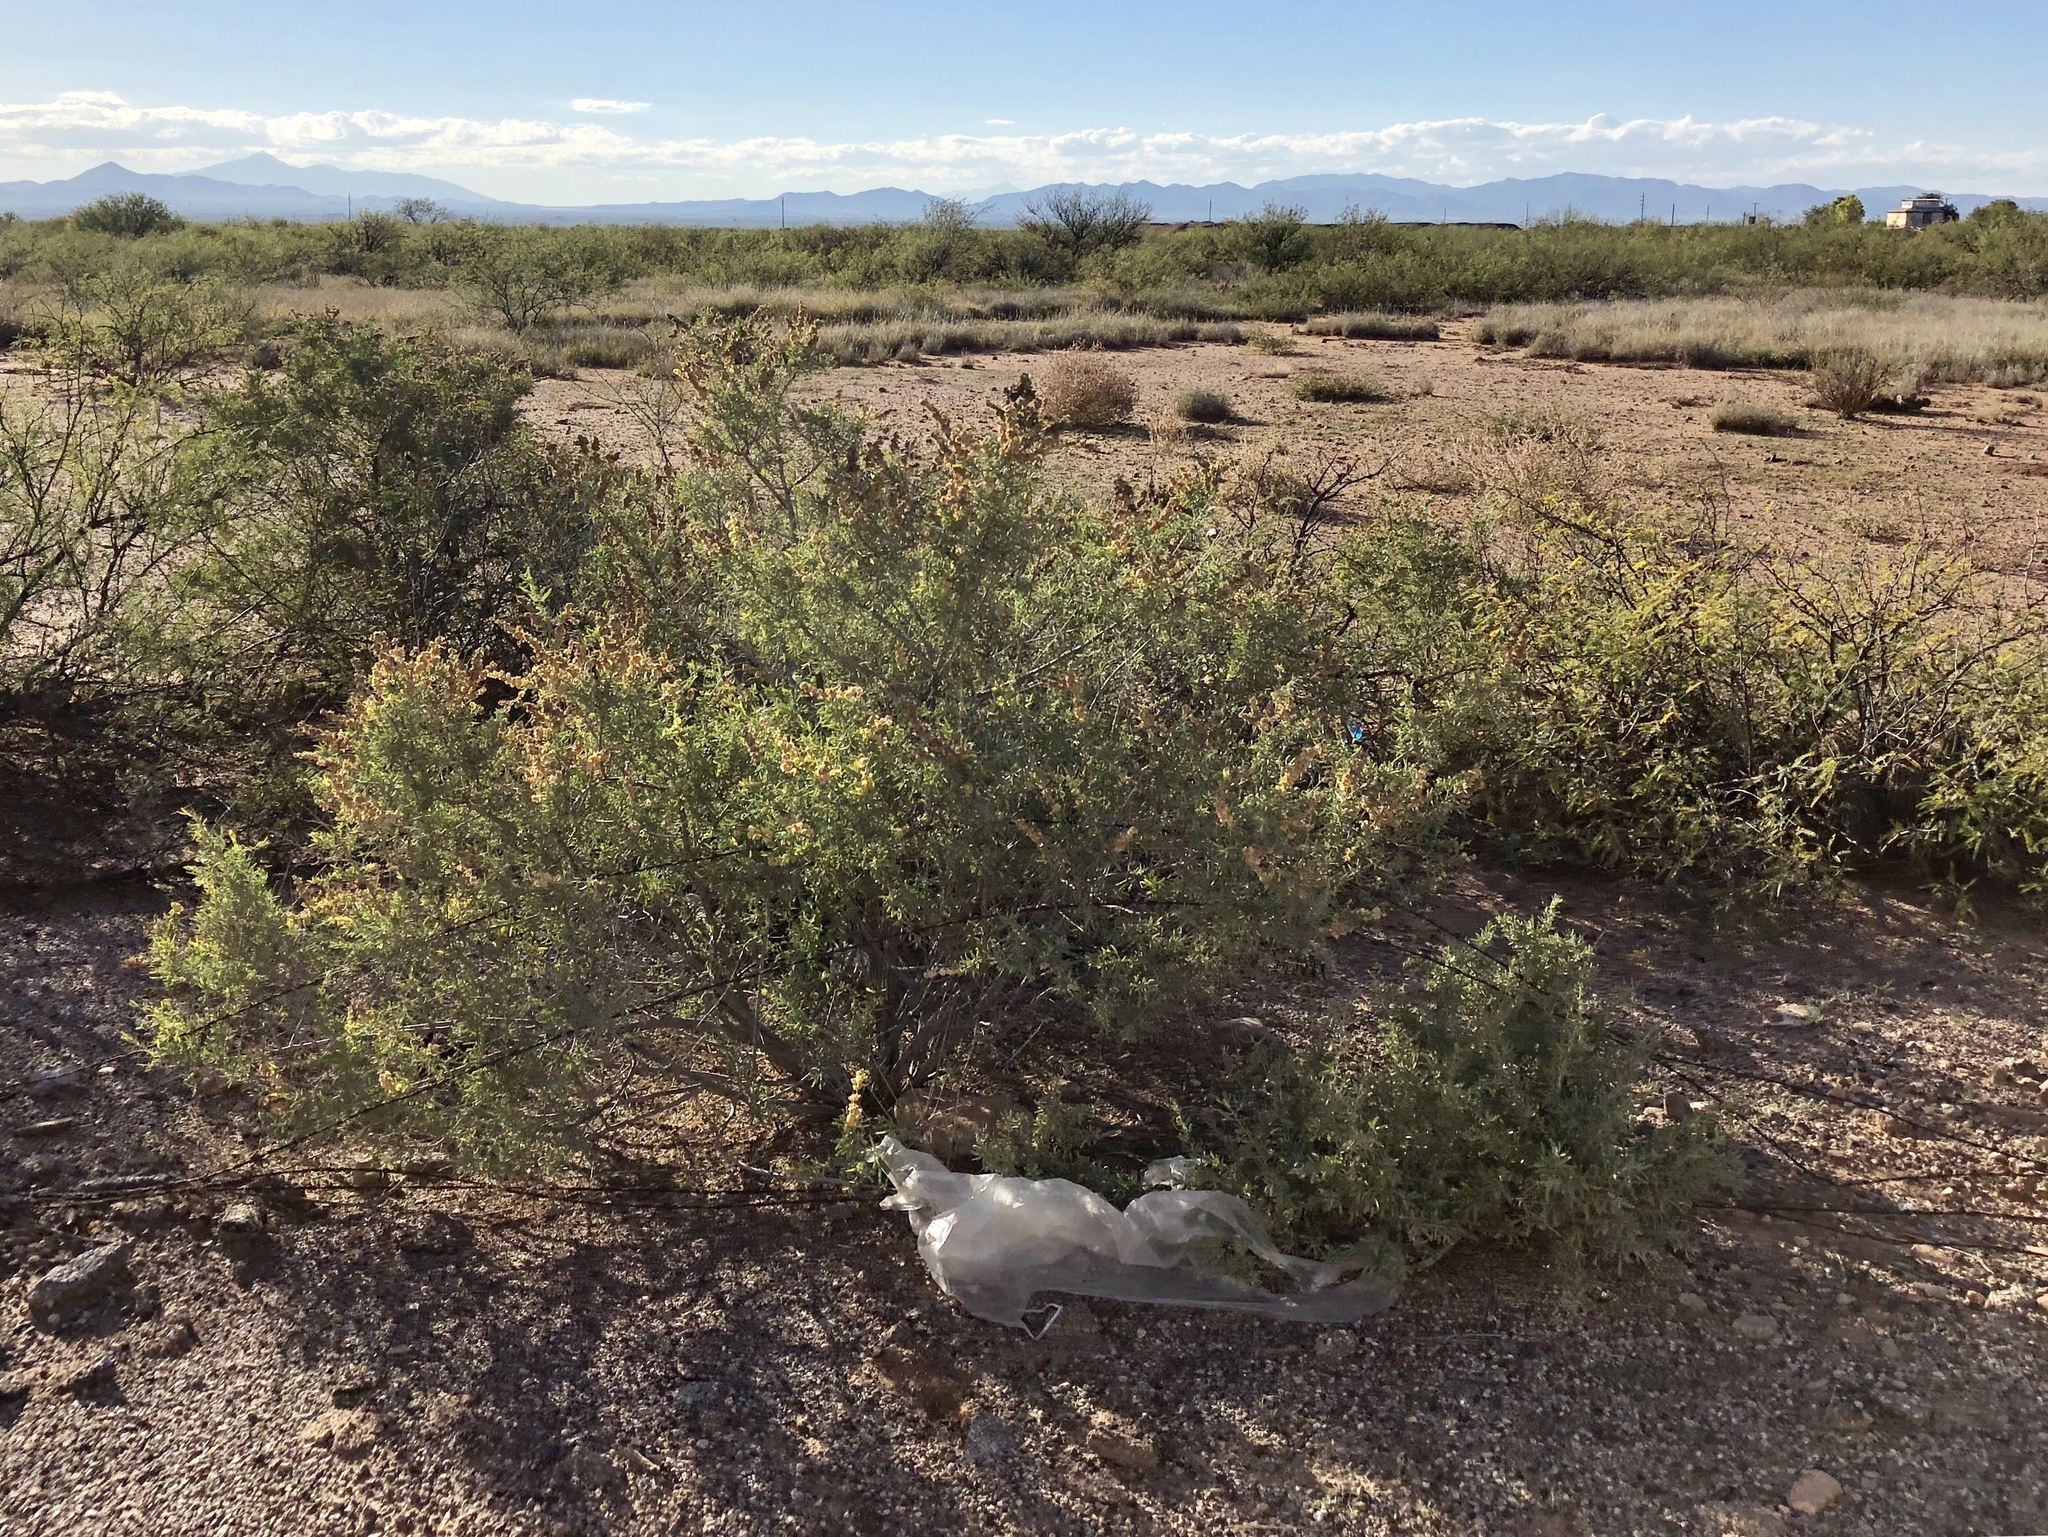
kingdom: Plantae
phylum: Tracheophyta
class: Magnoliopsida
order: Caryophyllales
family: Amaranthaceae
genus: Atriplex
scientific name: Atriplex canescens
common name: Four-wing saltbush
